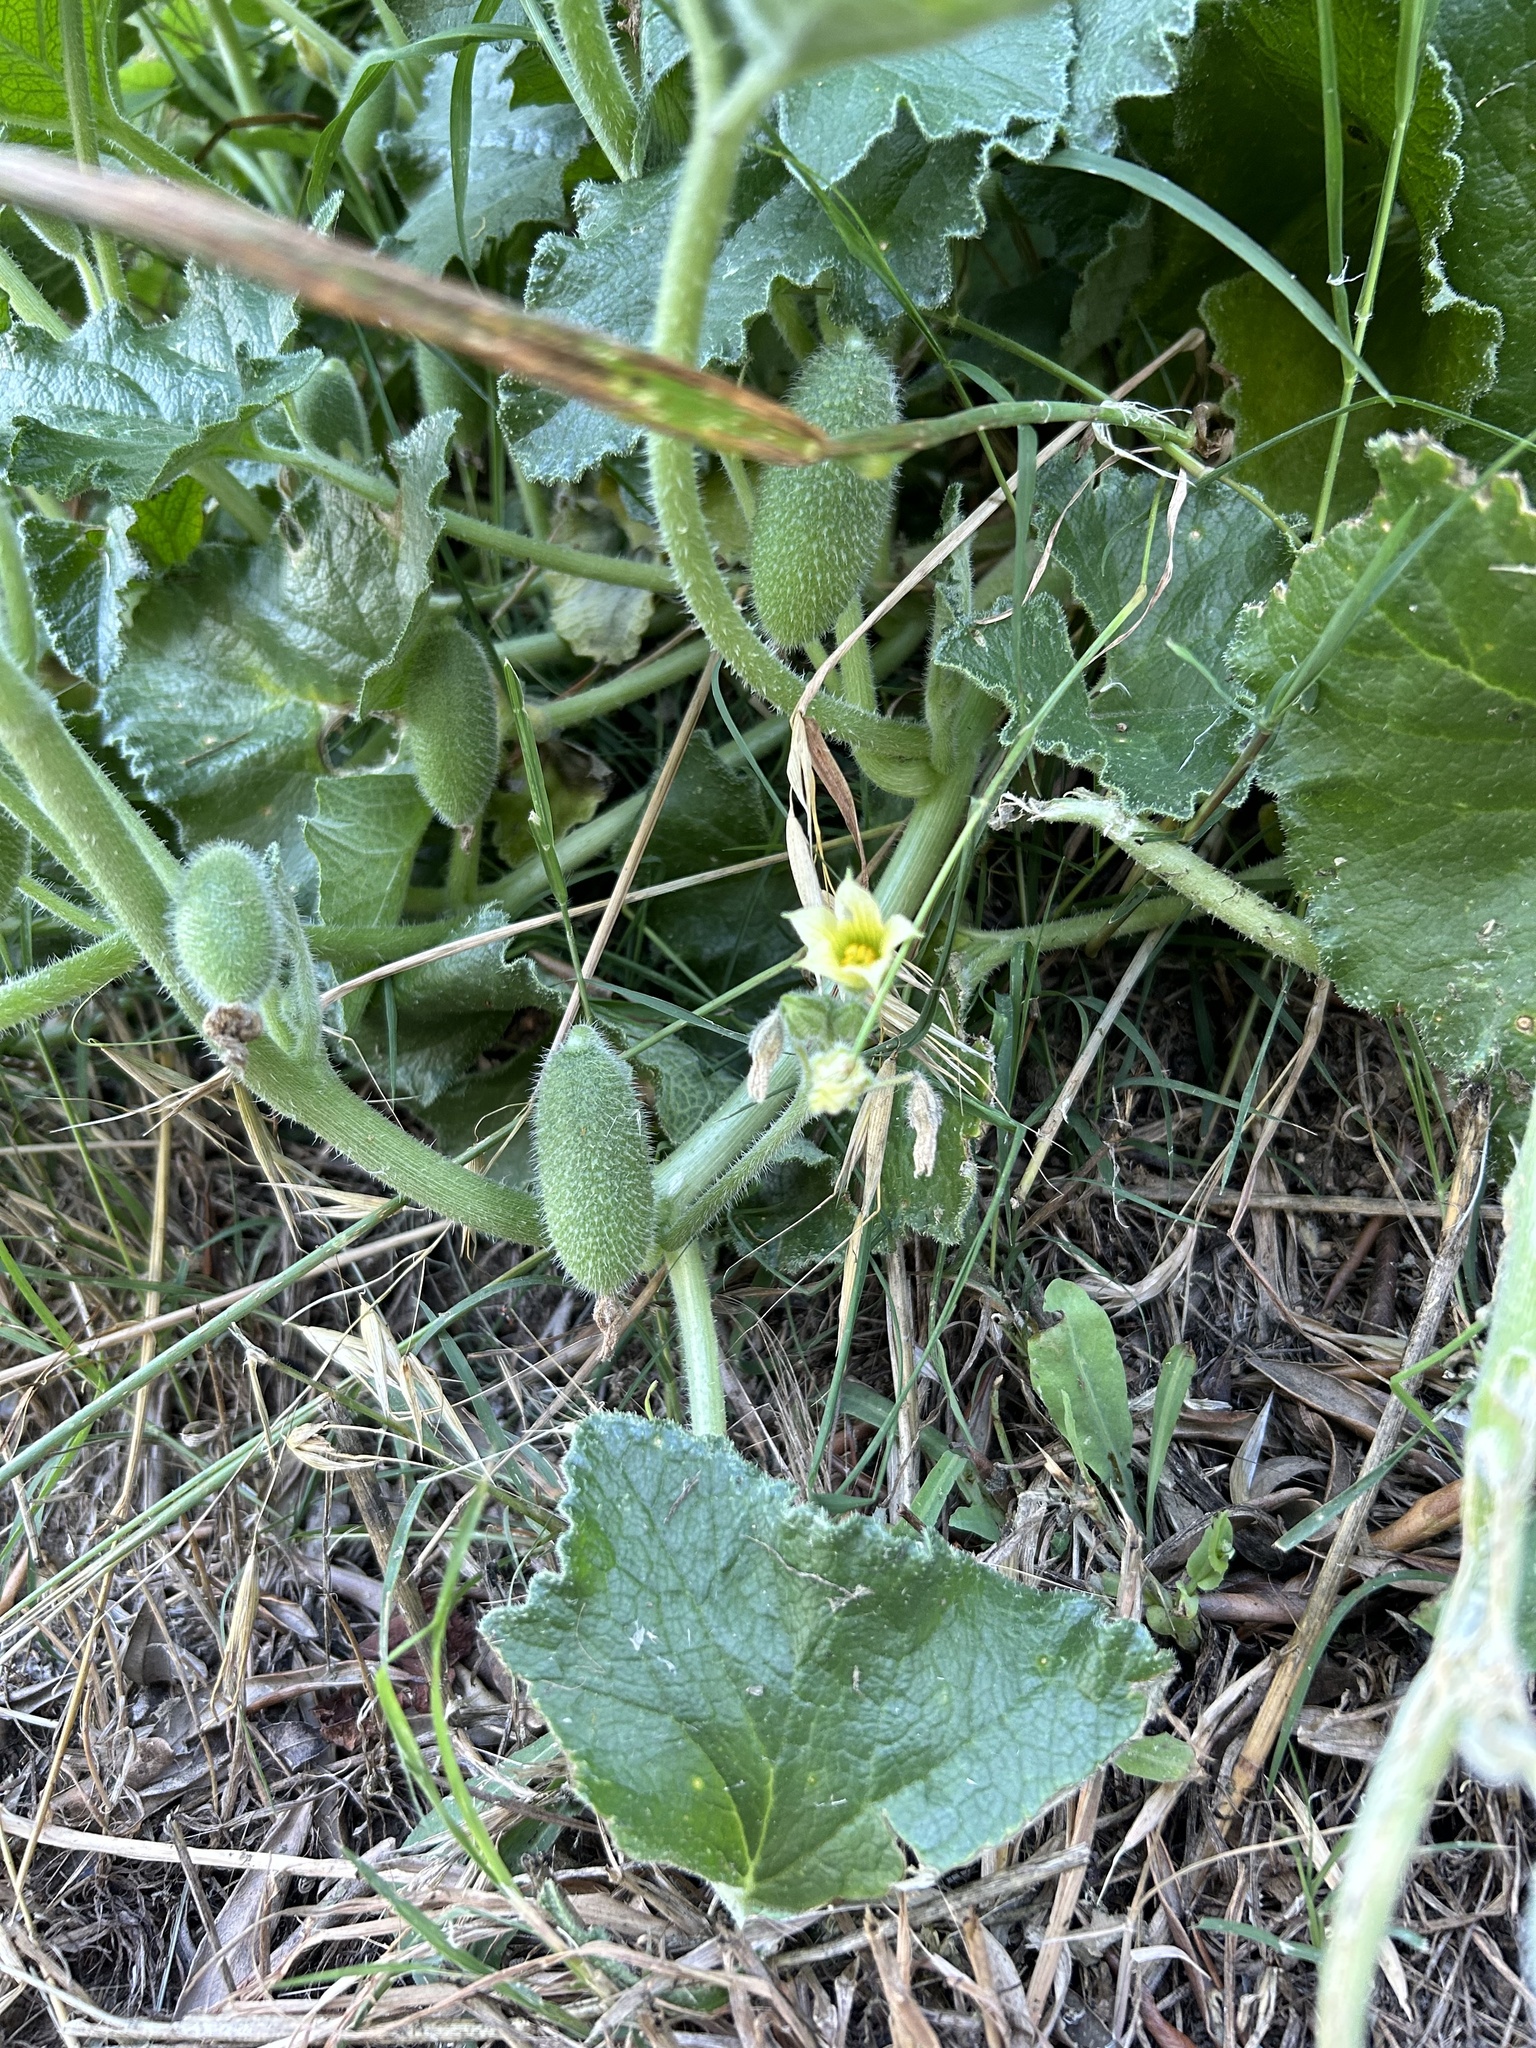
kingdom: Plantae
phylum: Tracheophyta
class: Magnoliopsida
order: Cucurbitales
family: Cucurbitaceae
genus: Ecballium
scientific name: Ecballium elaterium
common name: Squirting cucumber
